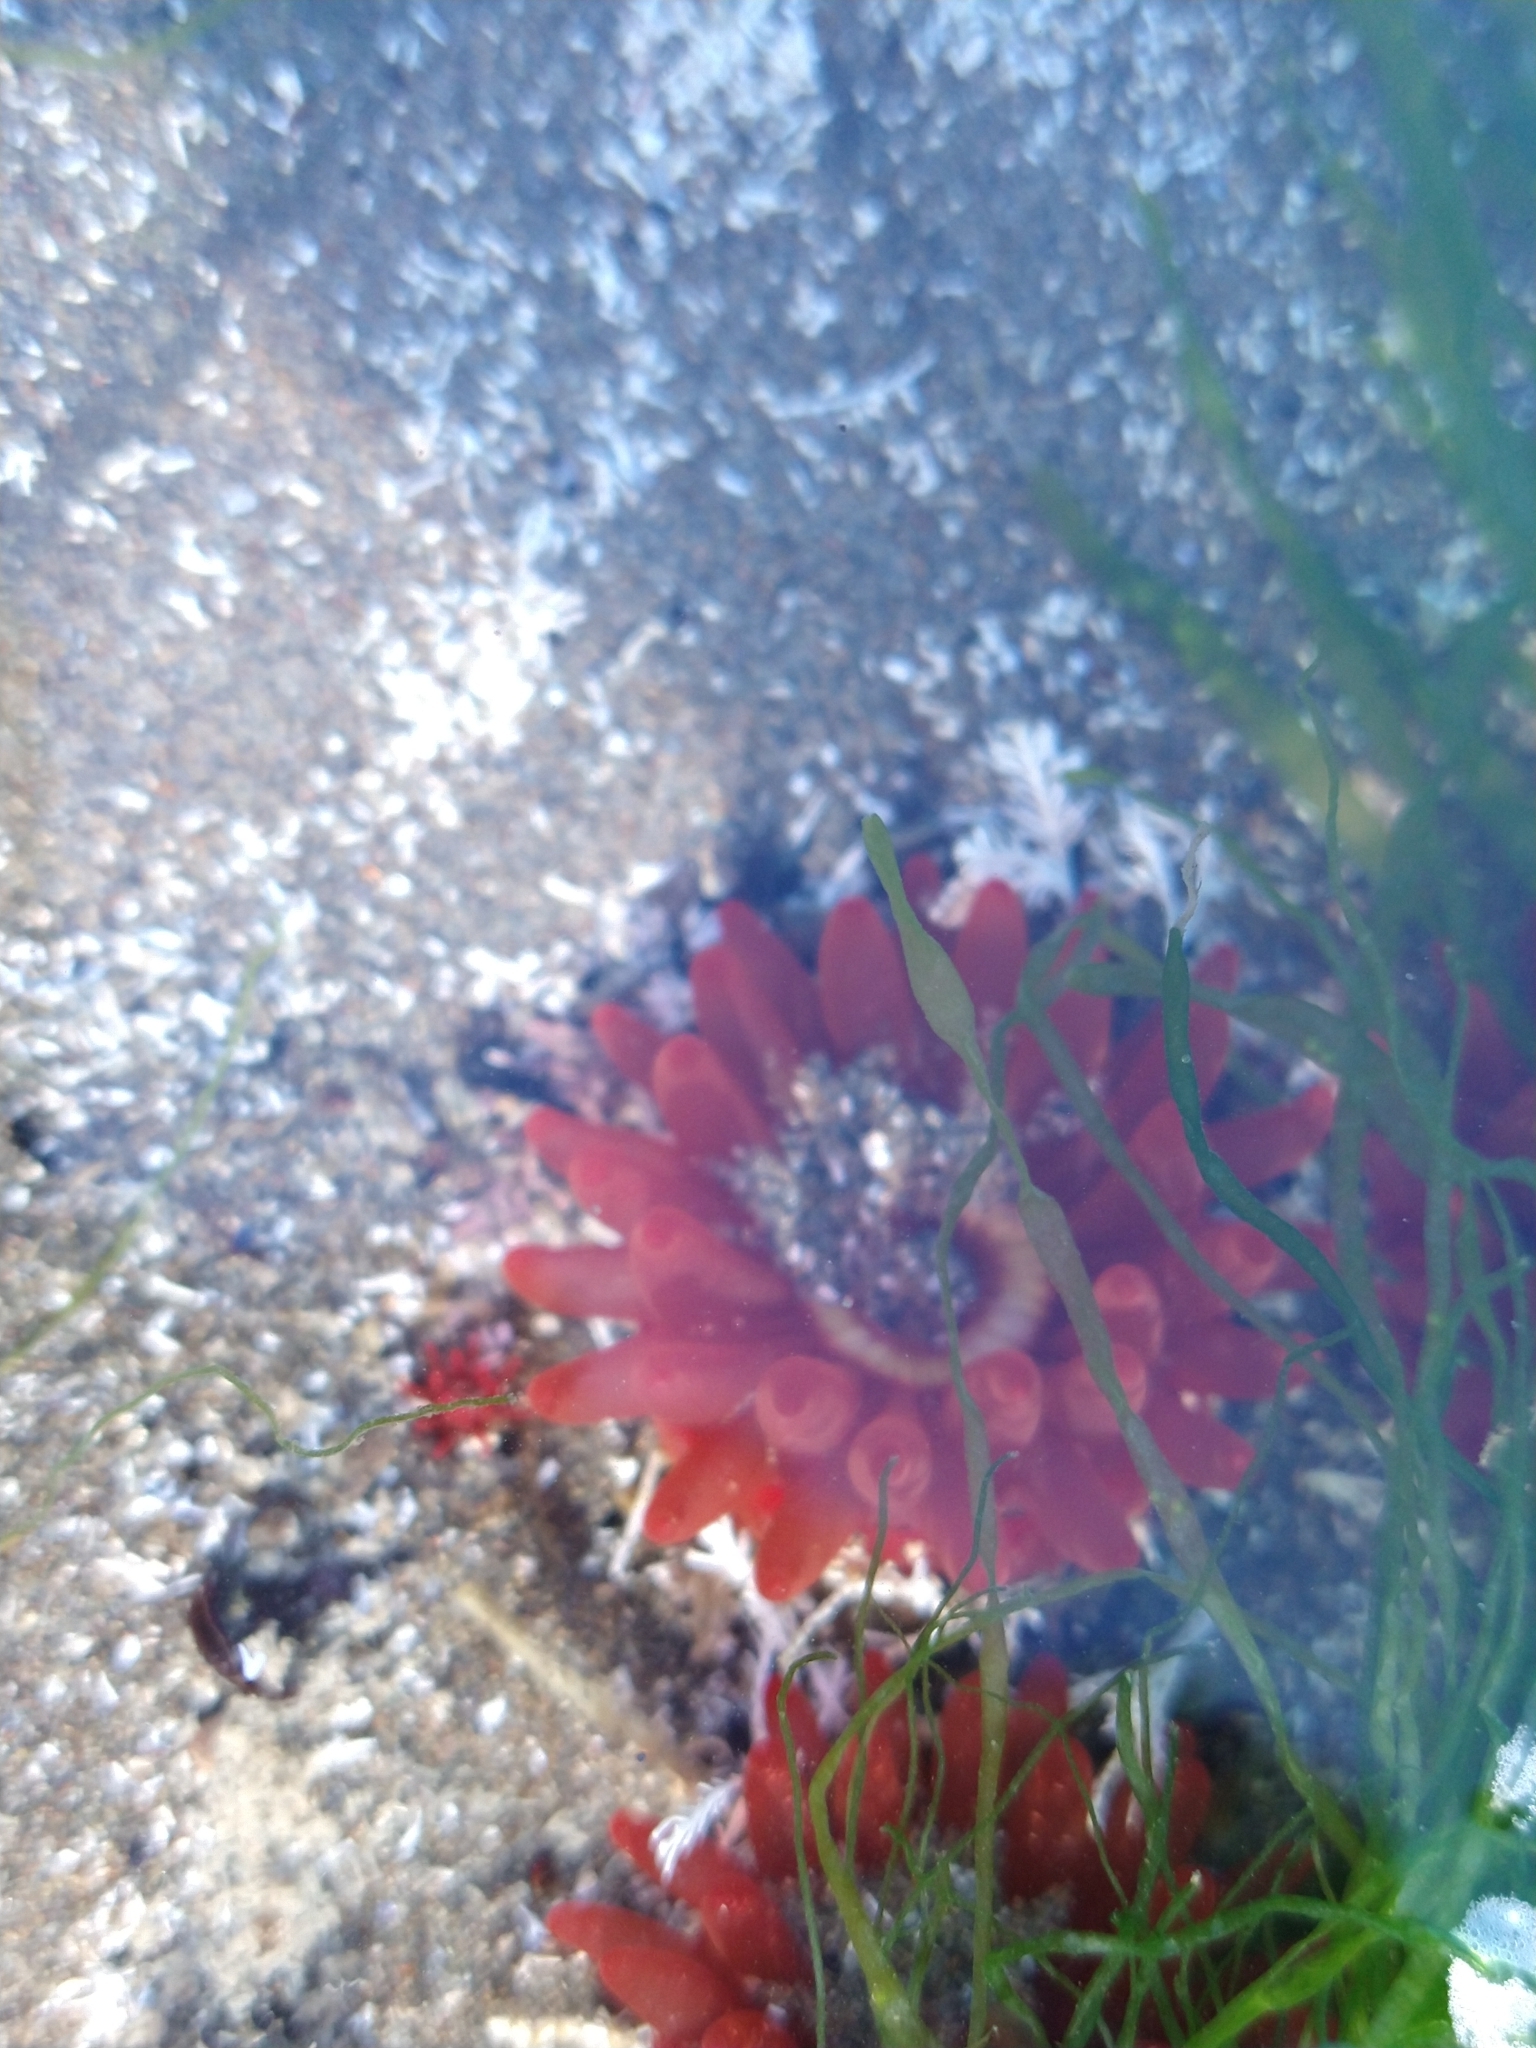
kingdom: Animalia
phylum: Cnidaria
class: Anthozoa
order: Actiniaria
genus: Paractis
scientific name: Paractis impatiens
